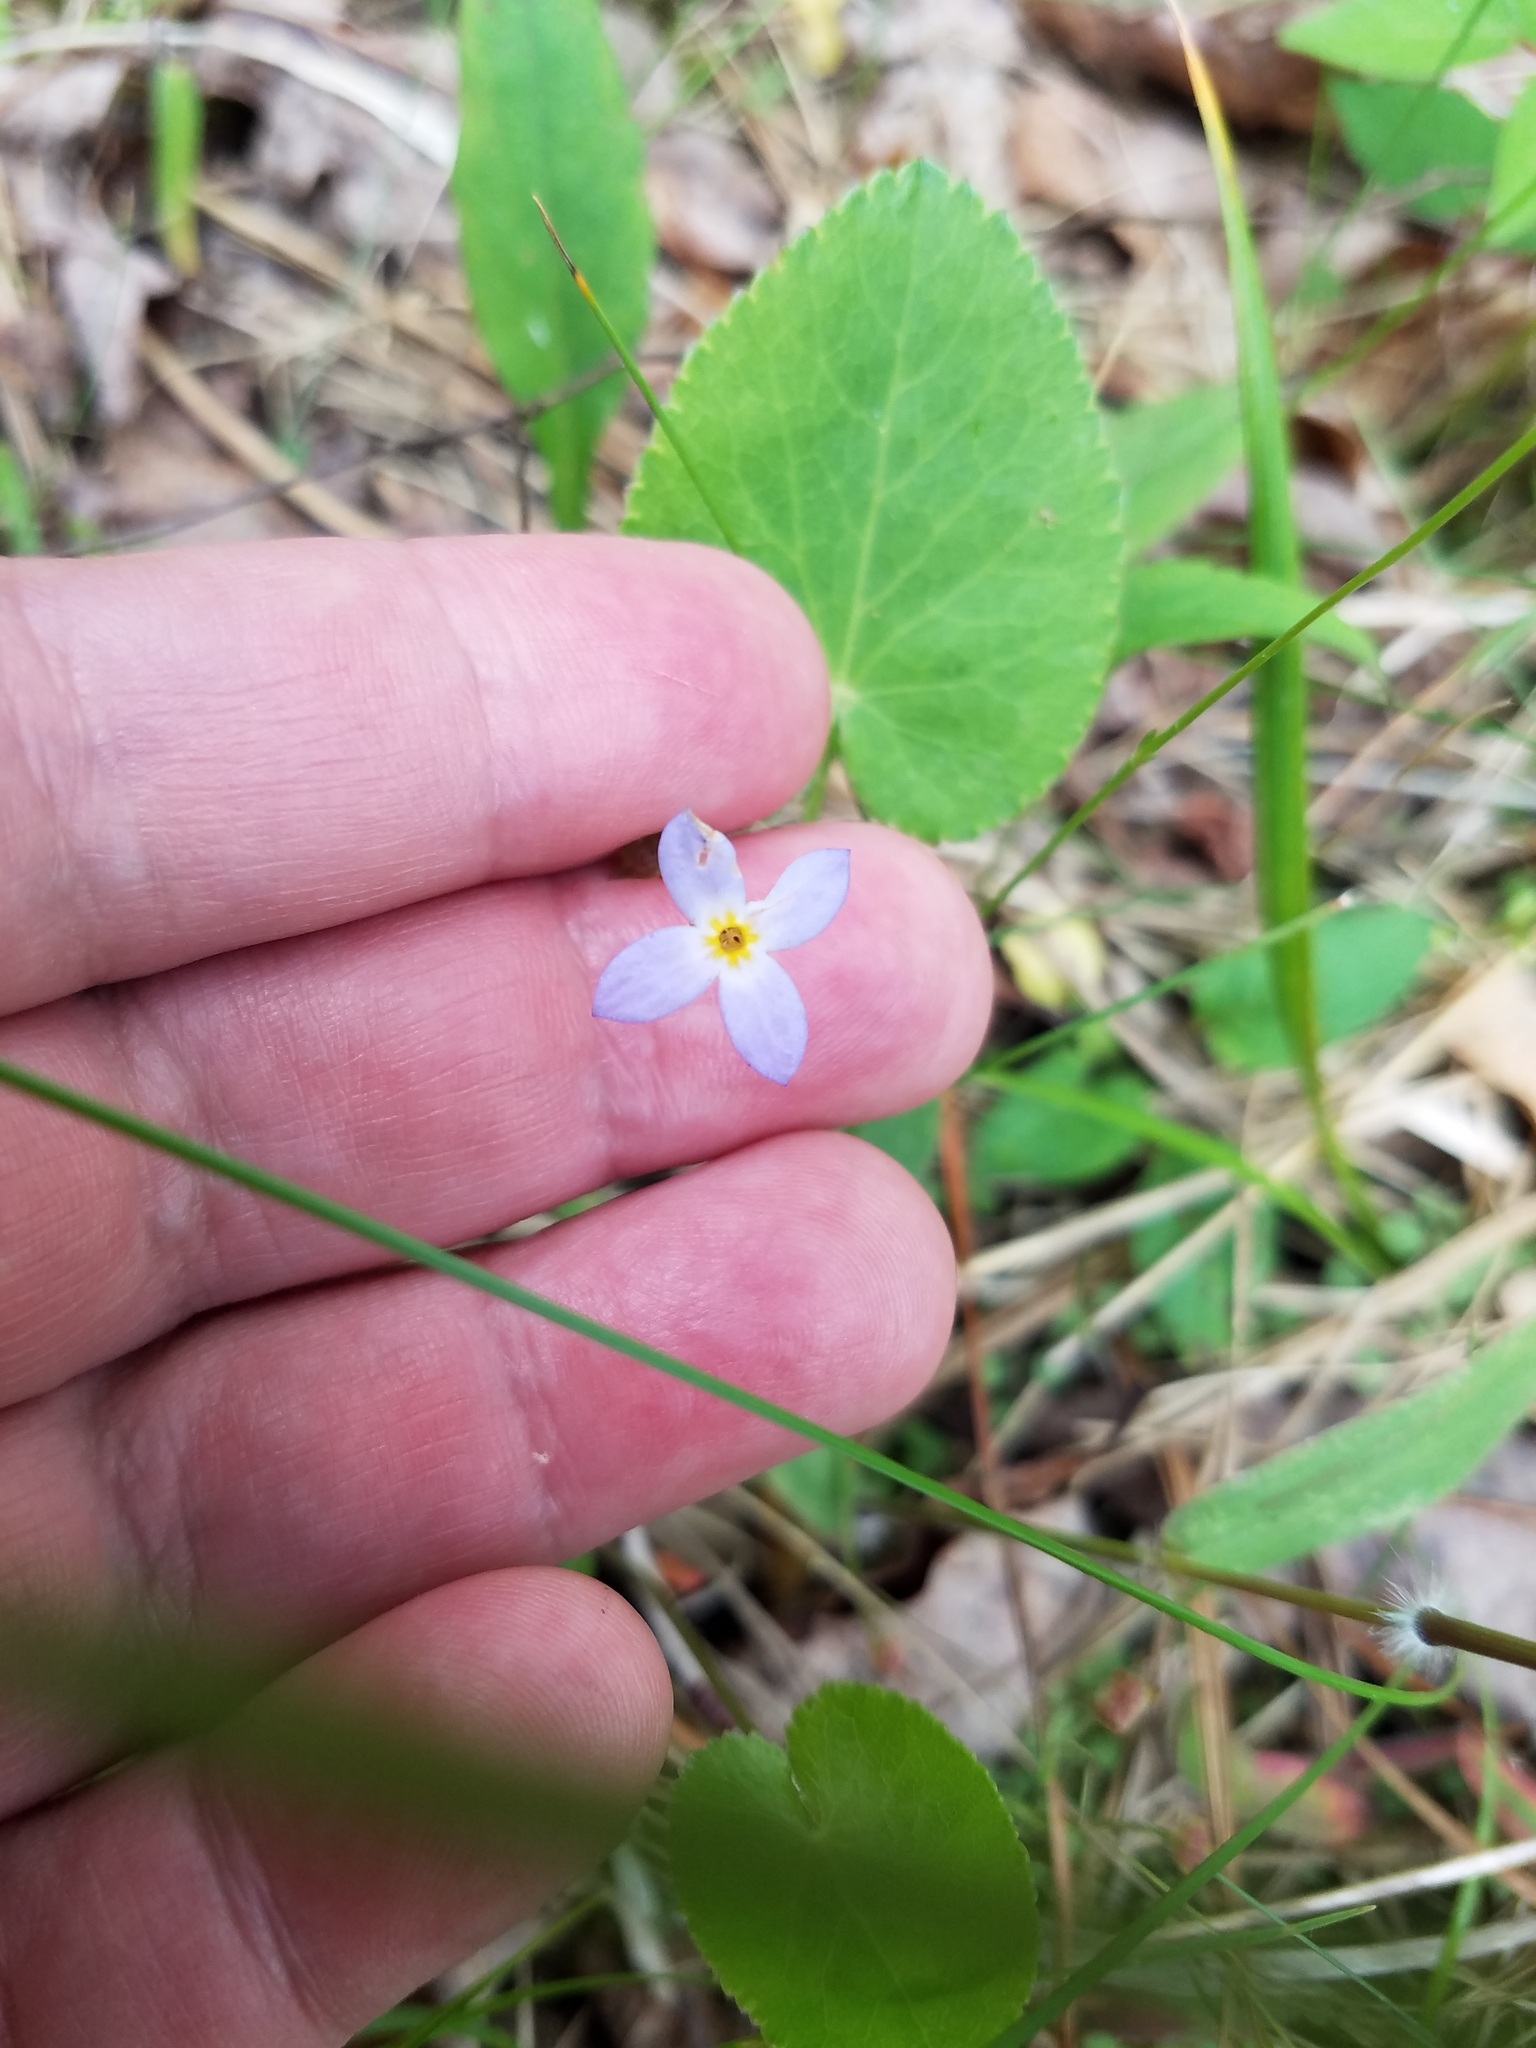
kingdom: Plantae
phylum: Tracheophyta
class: Magnoliopsida
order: Gentianales
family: Rubiaceae
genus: Houstonia
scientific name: Houstonia serpyllifolia
